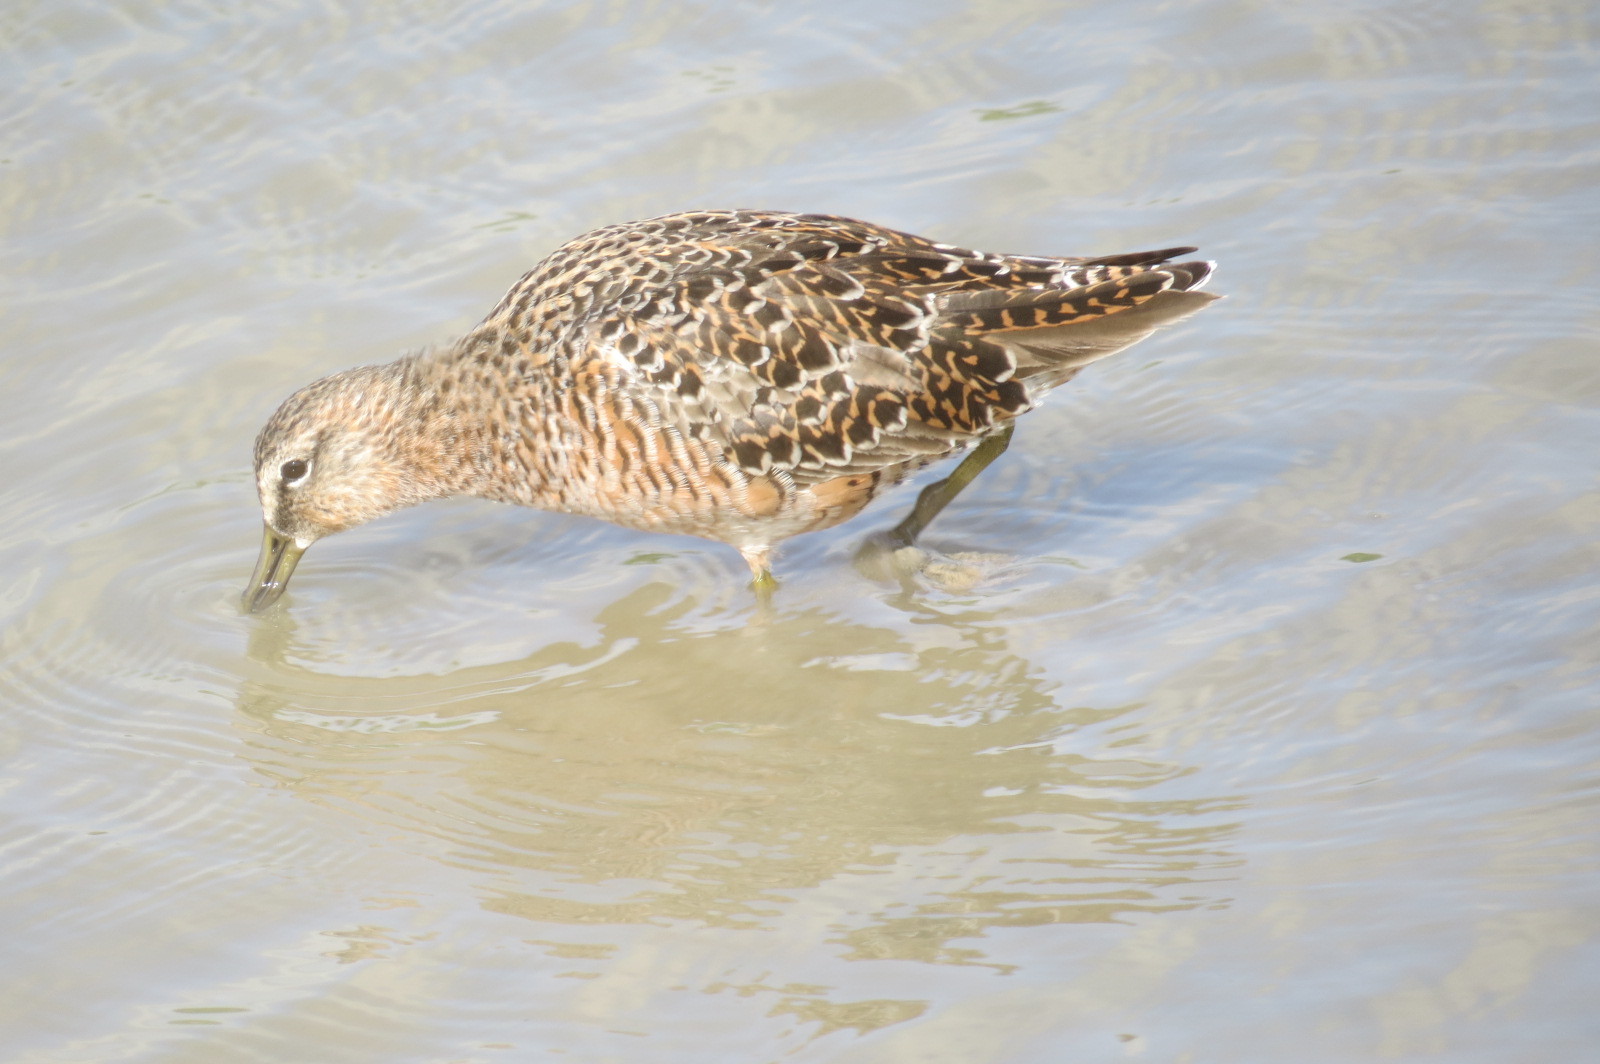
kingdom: Animalia
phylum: Chordata
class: Aves
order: Charadriiformes
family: Scolopacidae
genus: Limnodromus
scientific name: Limnodromus scolopaceus
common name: Long-billed dowitcher
